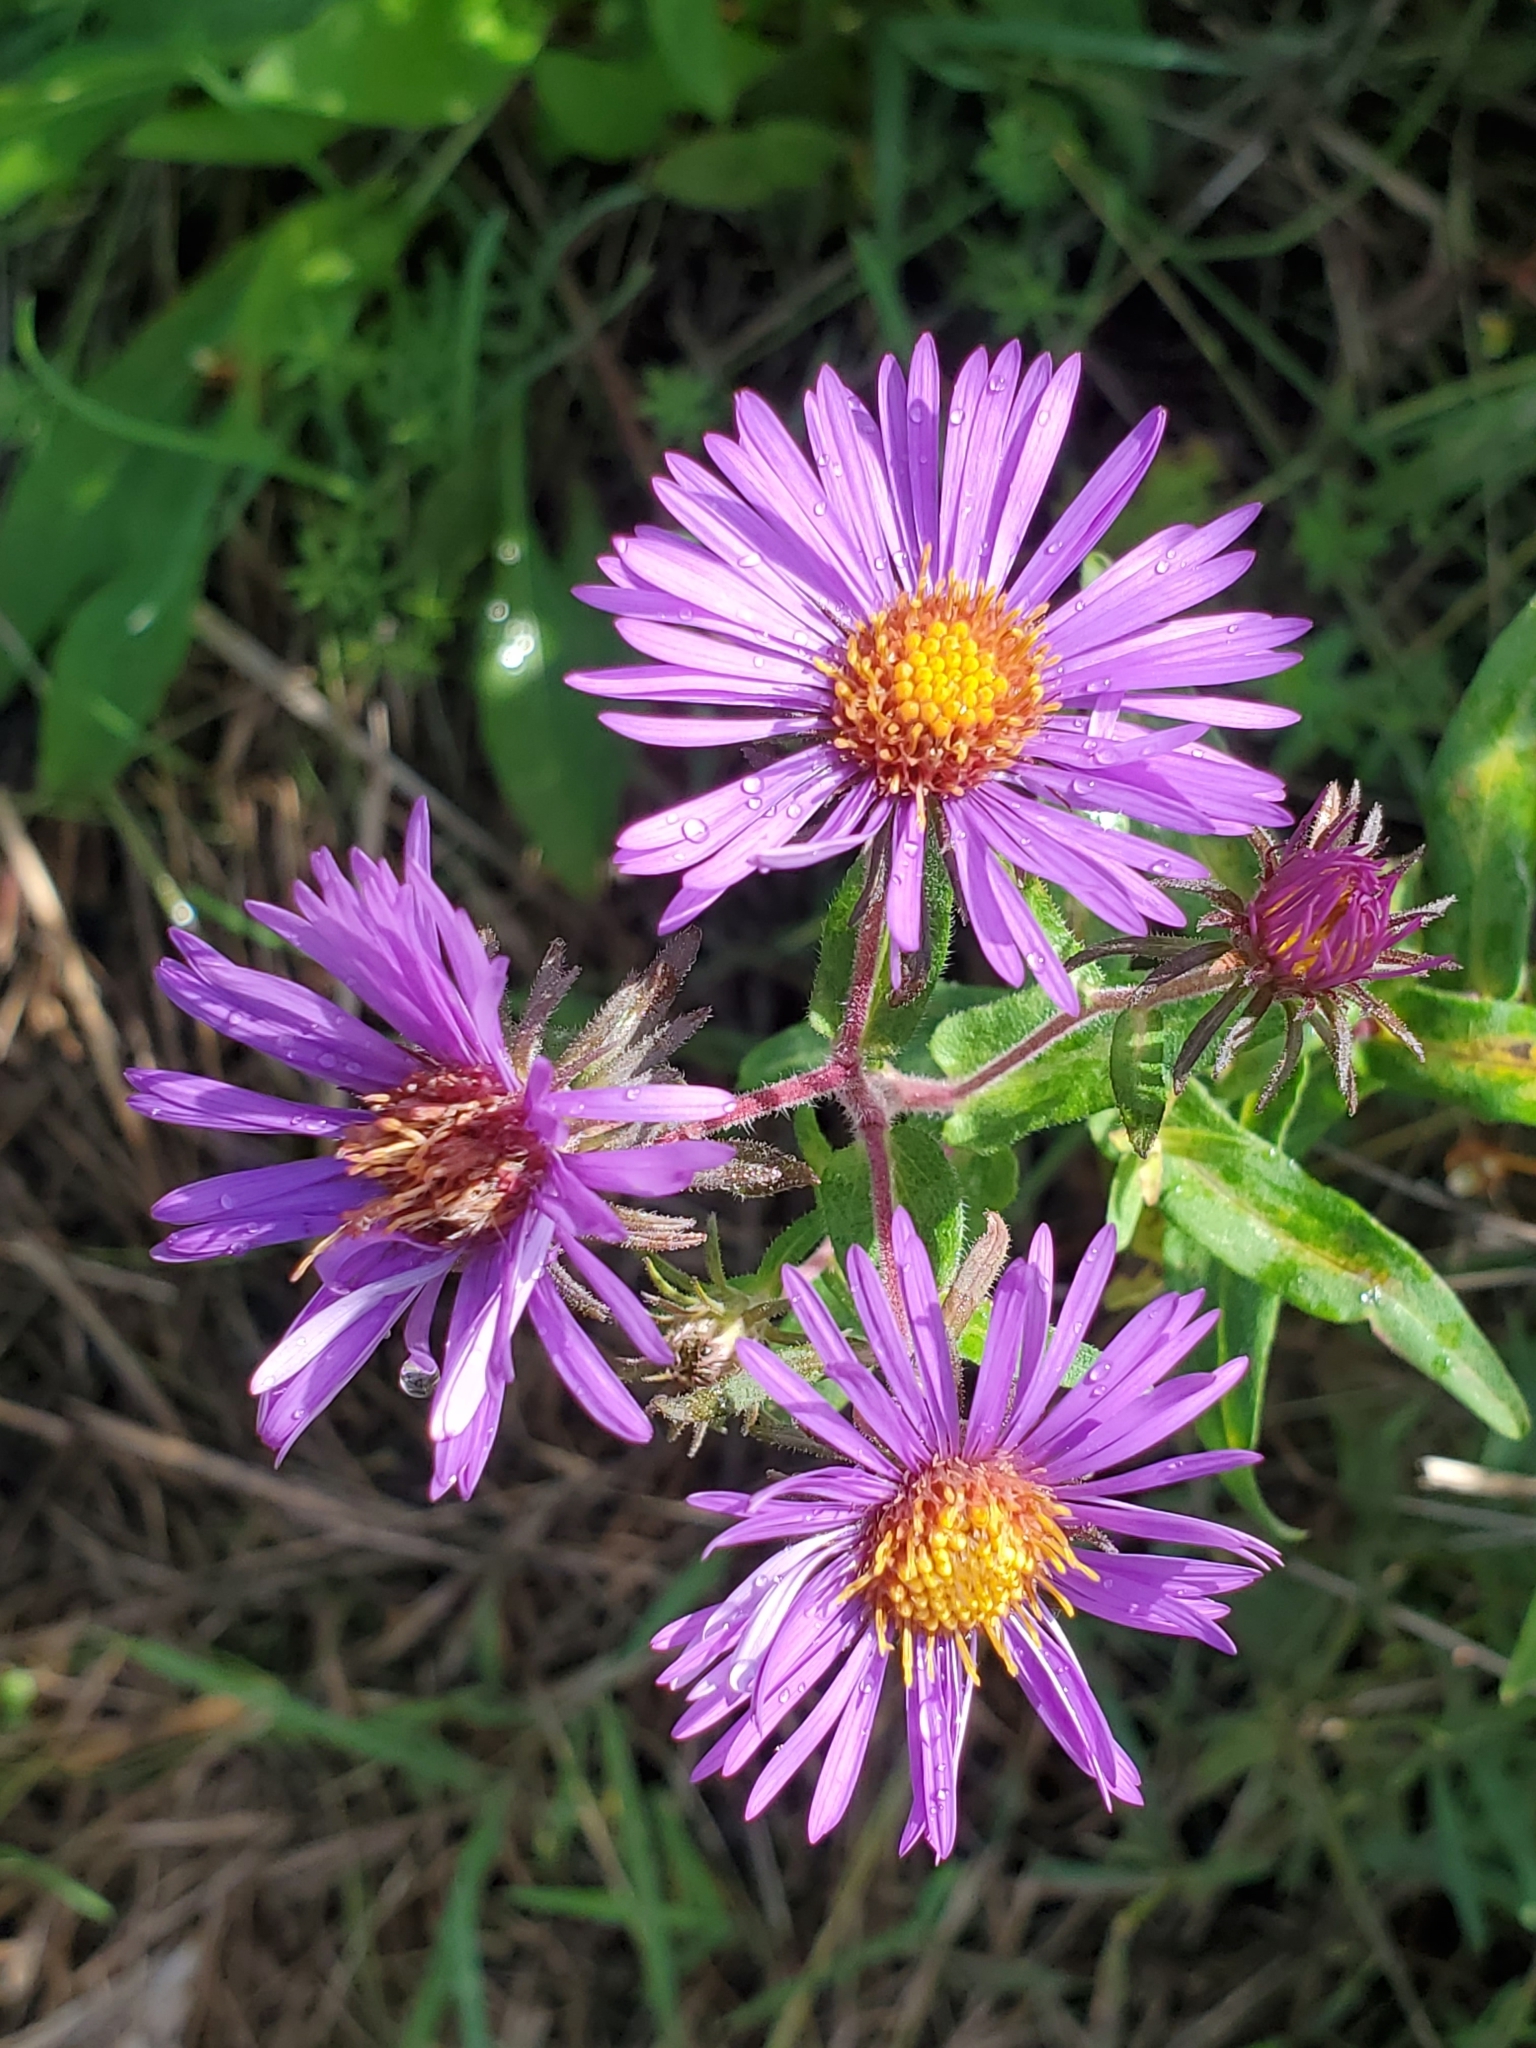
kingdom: Plantae
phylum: Tracheophyta
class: Magnoliopsida
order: Asterales
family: Asteraceae
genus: Symphyotrichum
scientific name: Symphyotrichum novae-angliae
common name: Michaelmas daisy
